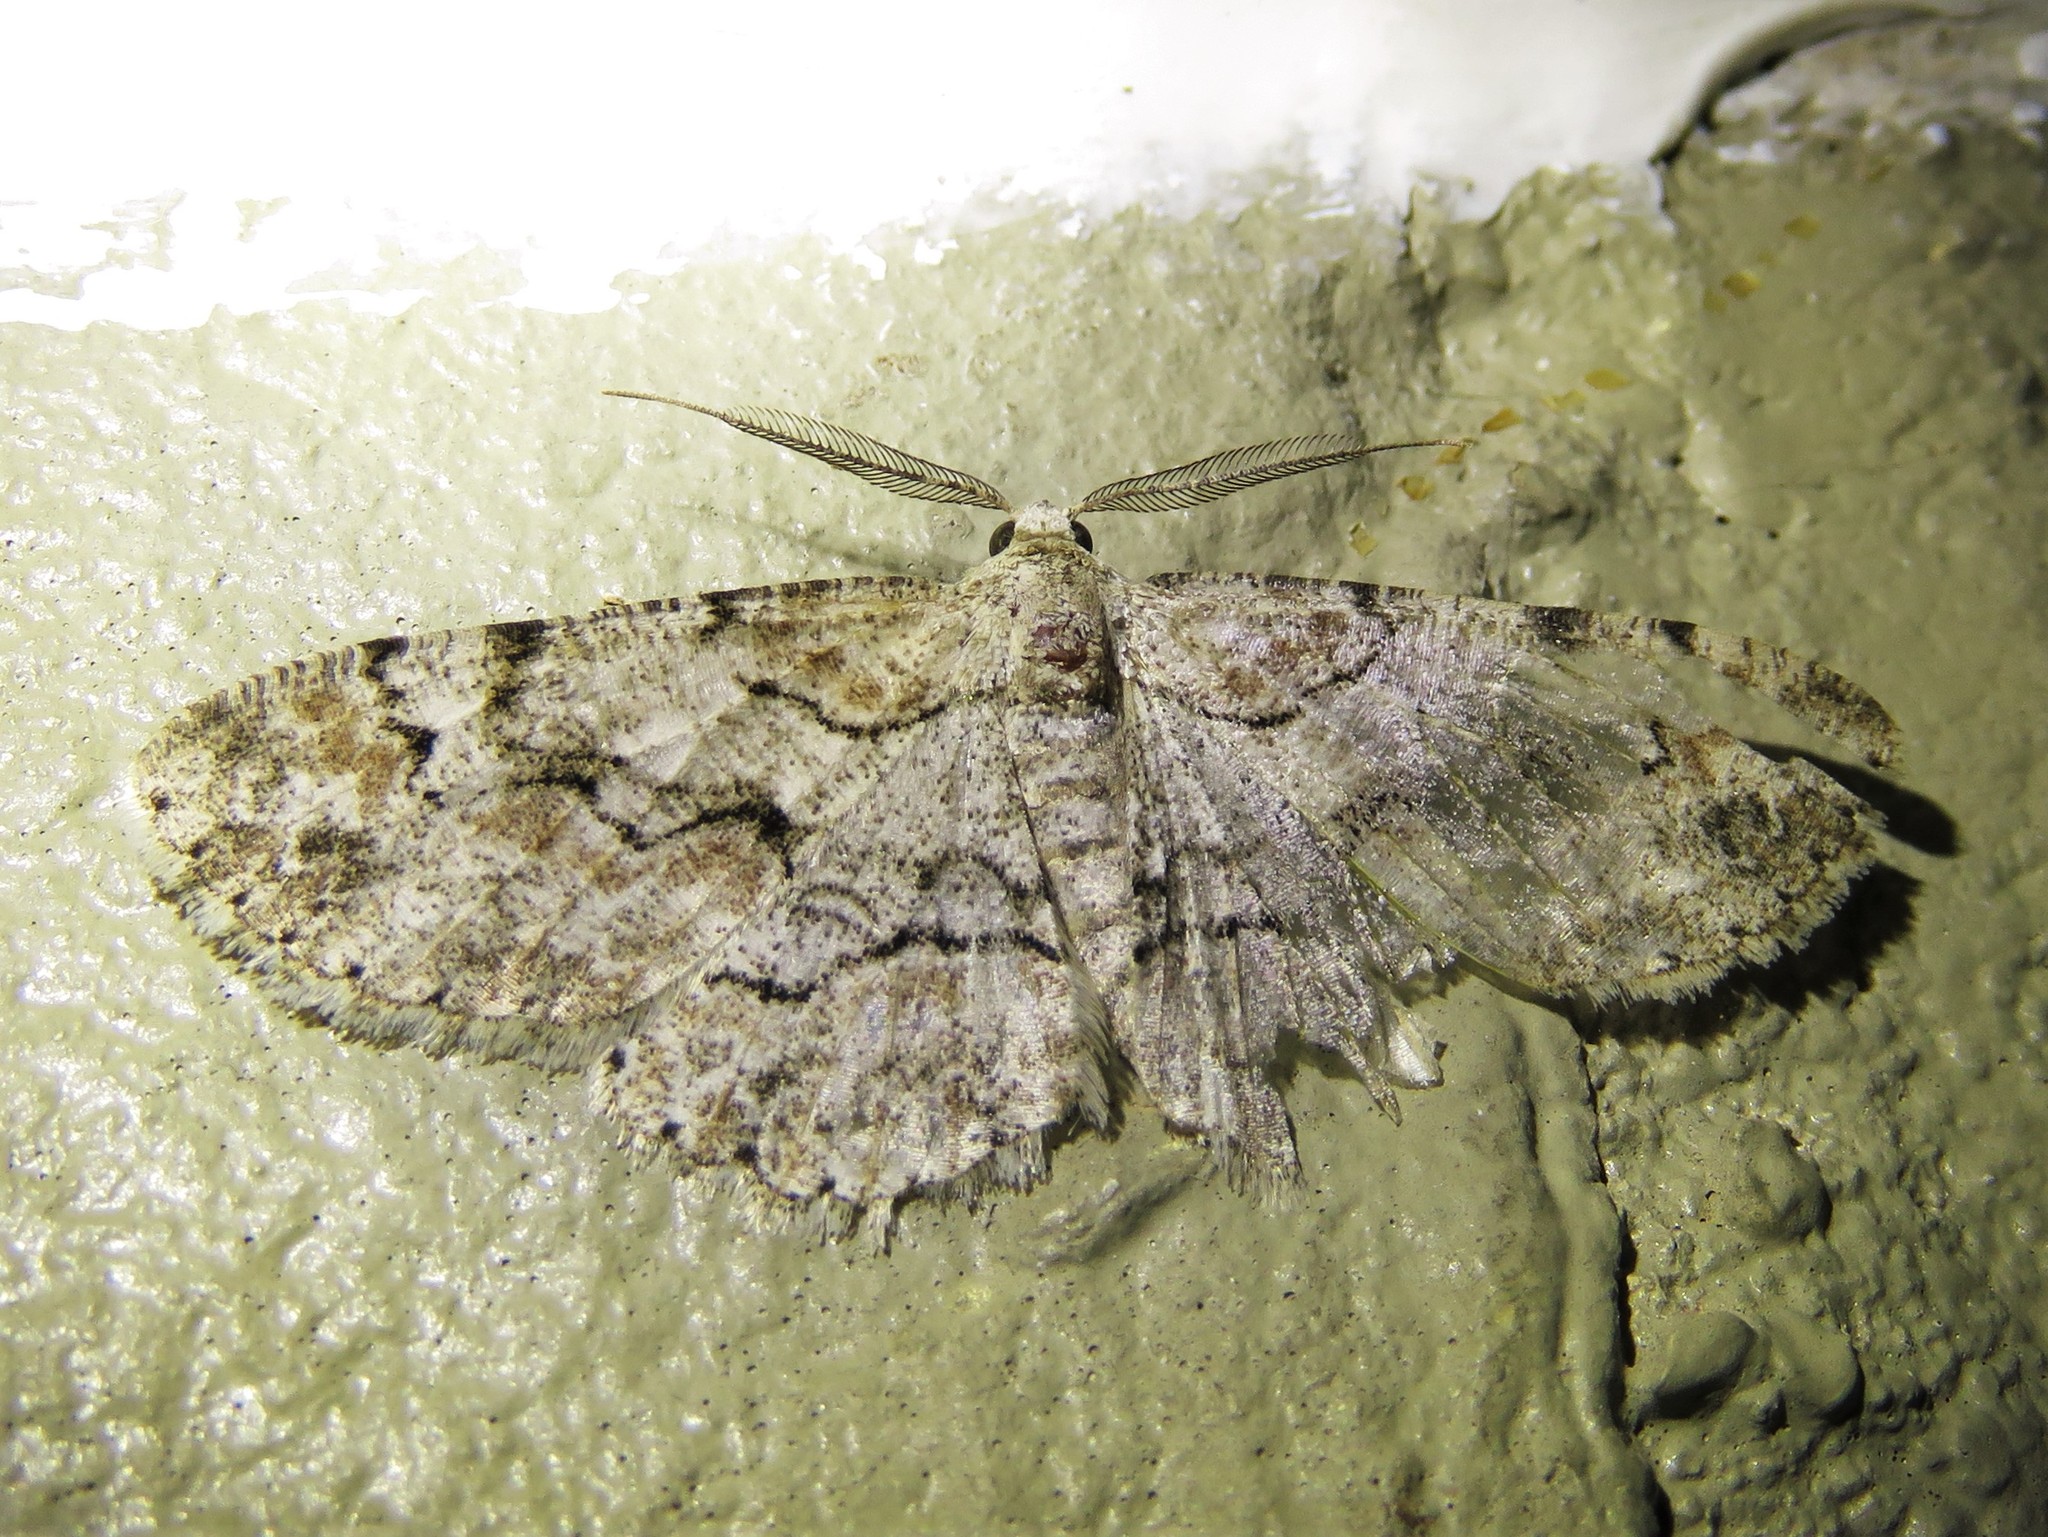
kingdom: Animalia
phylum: Arthropoda
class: Insecta
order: Lepidoptera
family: Geometridae
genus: Iridopsis
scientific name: Iridopsis defectaria
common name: Brown-shaded gray
